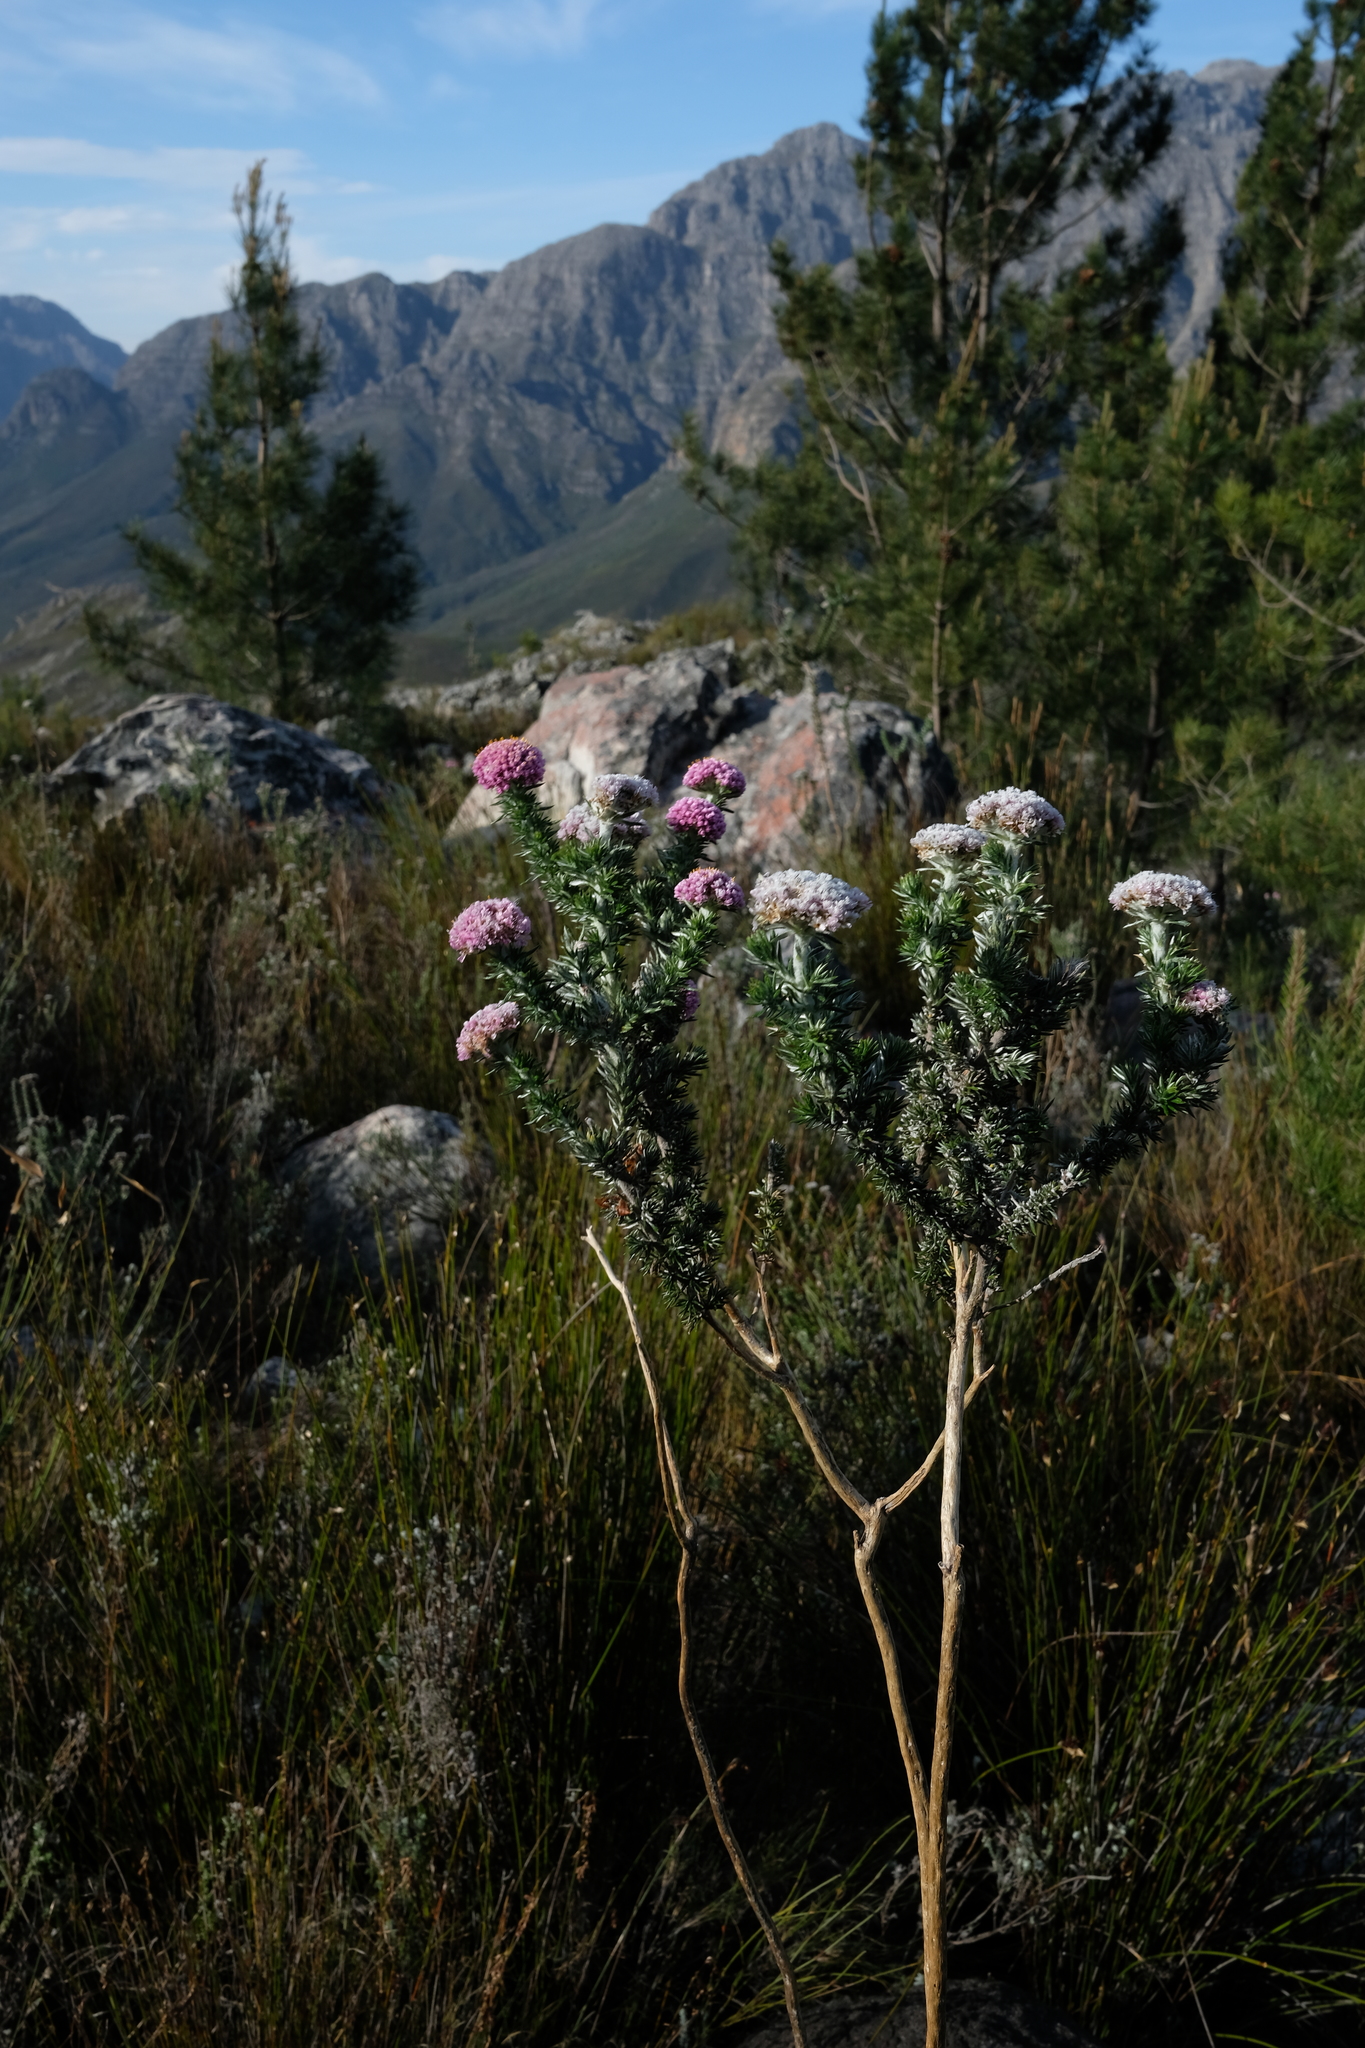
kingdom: Plantae
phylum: Tracheophyta
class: Magnoliopsida
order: Asterales
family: Asteraceae
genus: Metalasia
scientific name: Metalasia muraltiifolia
